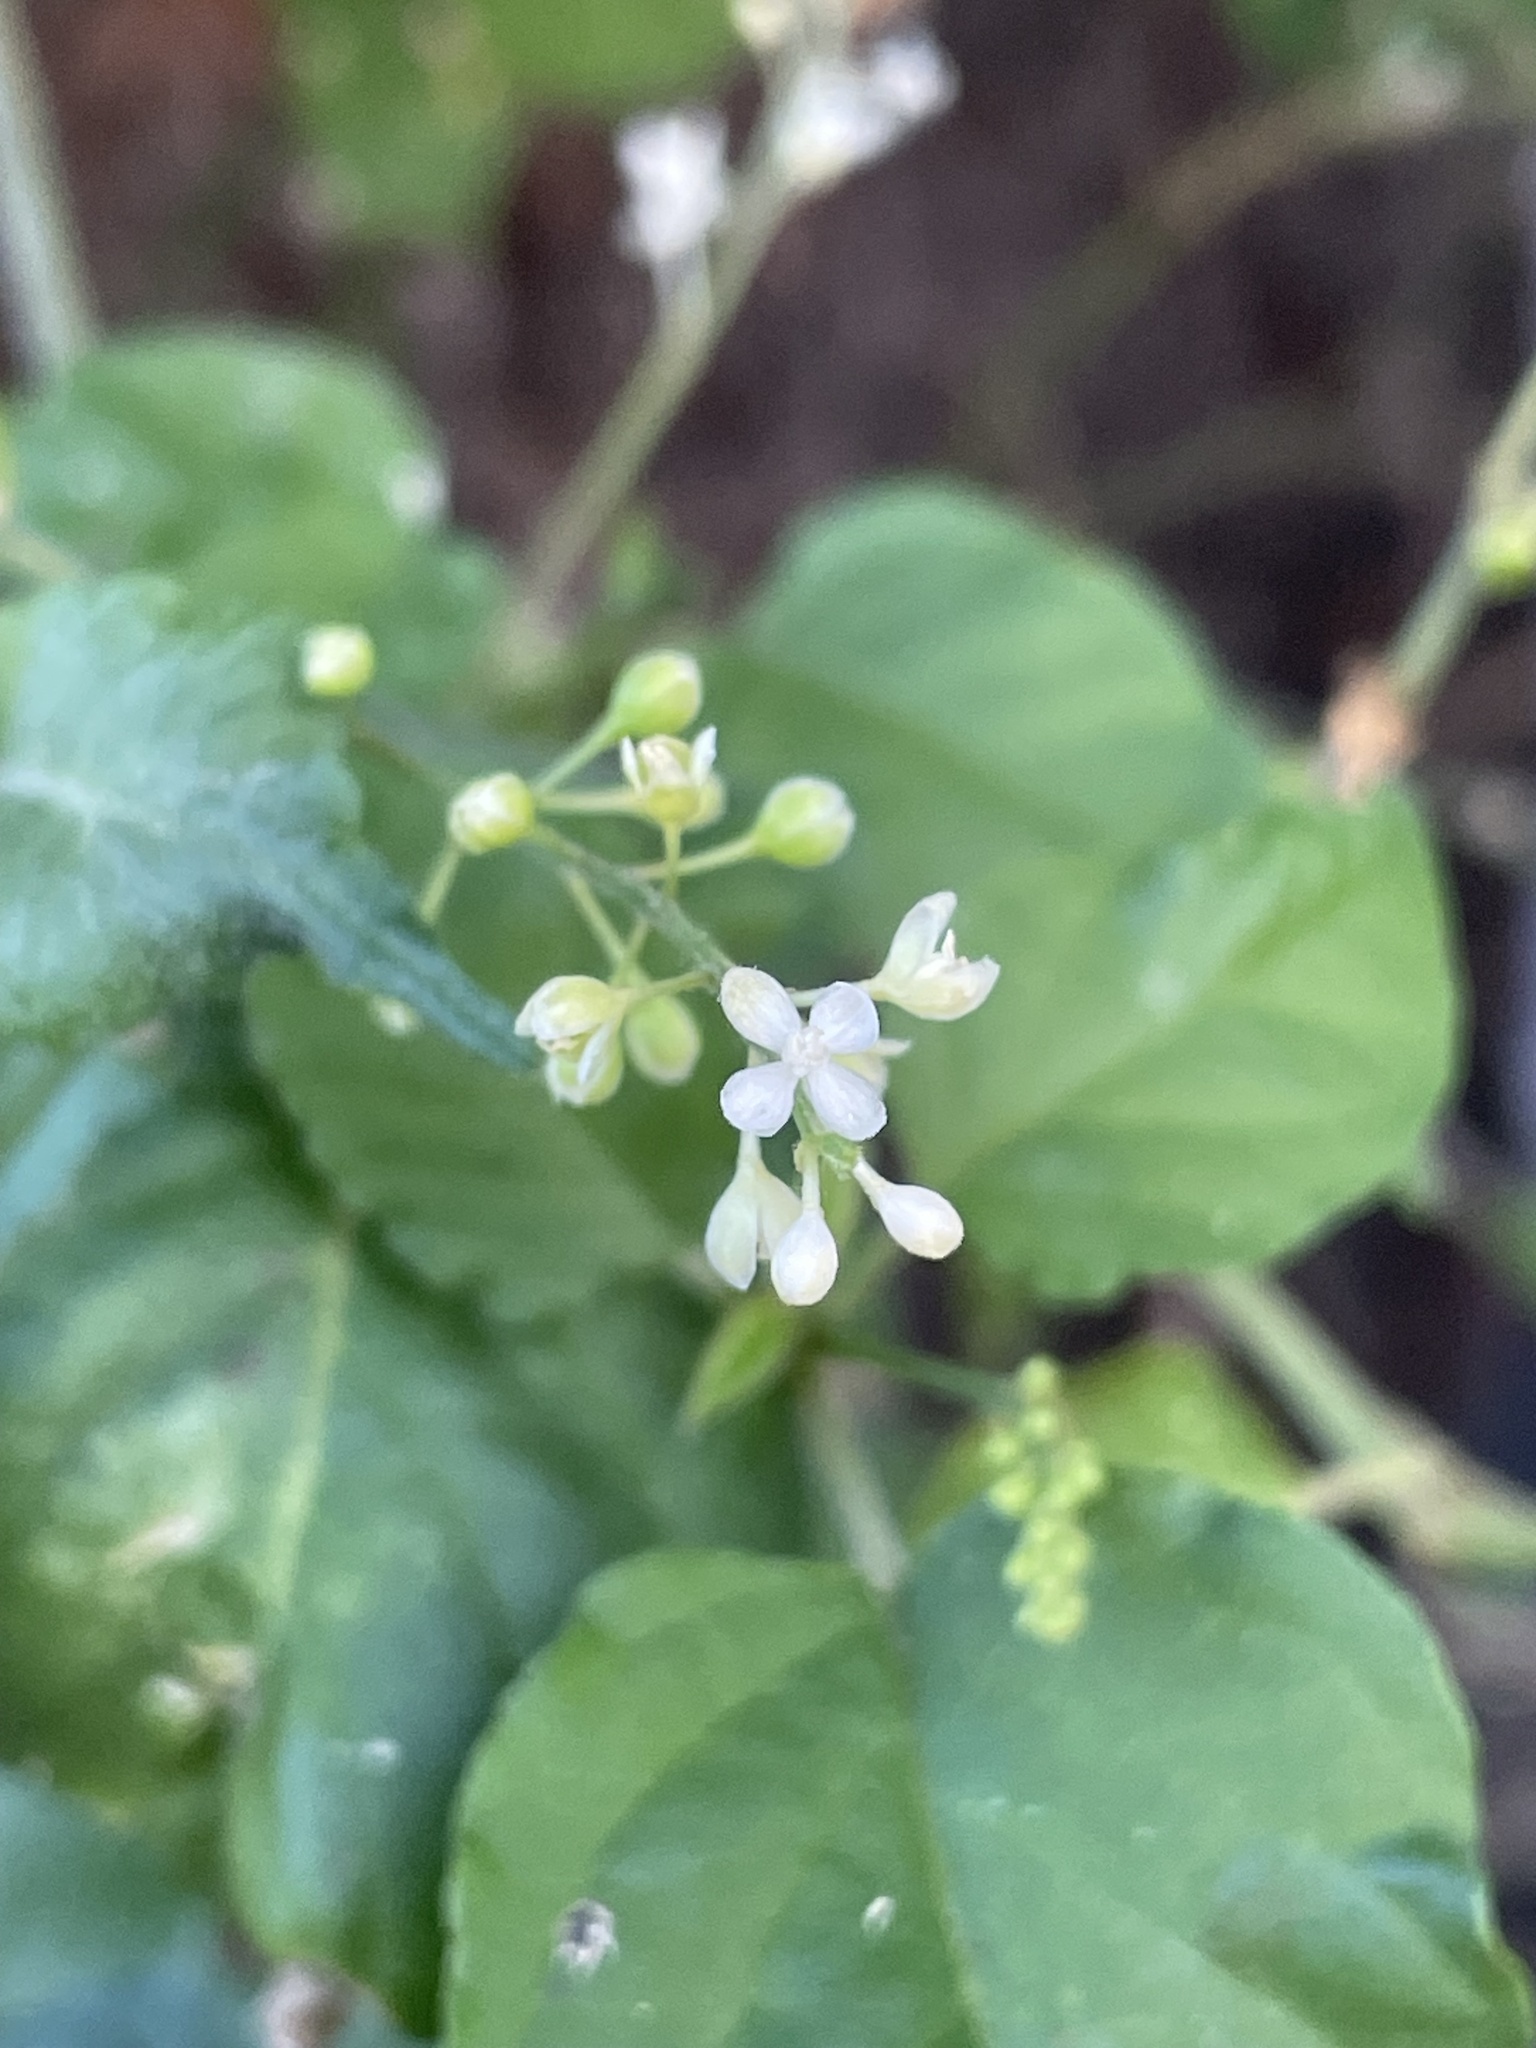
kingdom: Plantae
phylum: Tracheophyta
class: Magnoliopsida
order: Caryophyllales
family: Phytolaccaceae
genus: Rivina
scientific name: Rivina humilis
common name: Rougeplant
